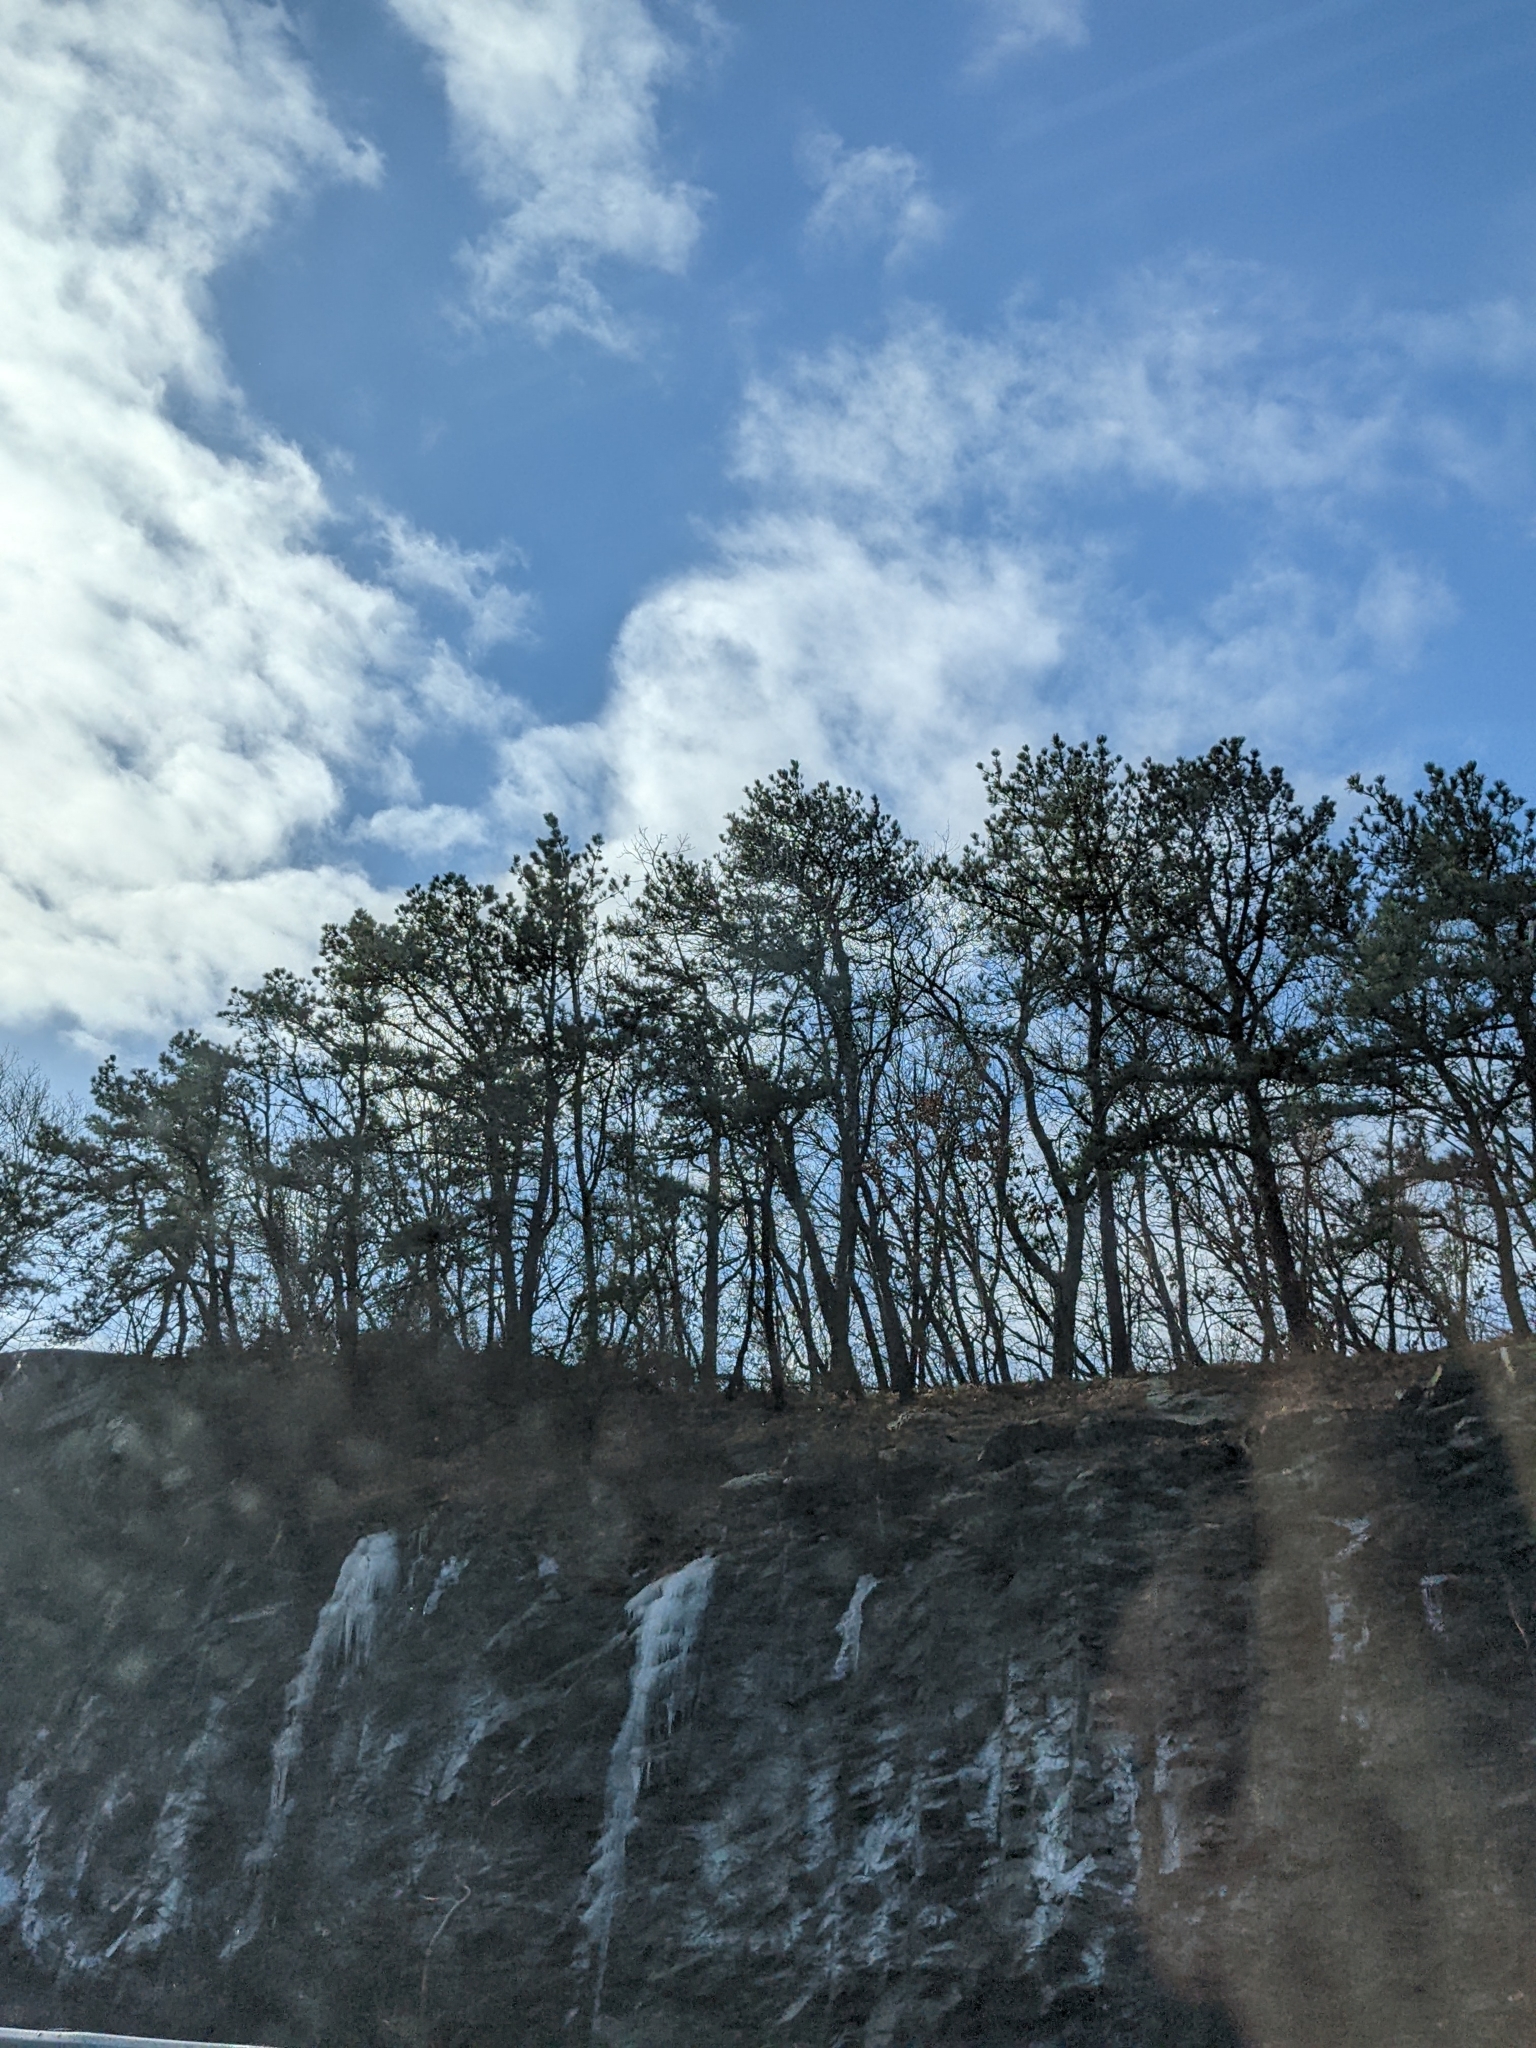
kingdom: Plantae
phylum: Tracheophyta
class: Pinopsida
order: Pinales
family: Pinaceae
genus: Pinus
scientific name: Pinus strobus
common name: Weymouth pine
